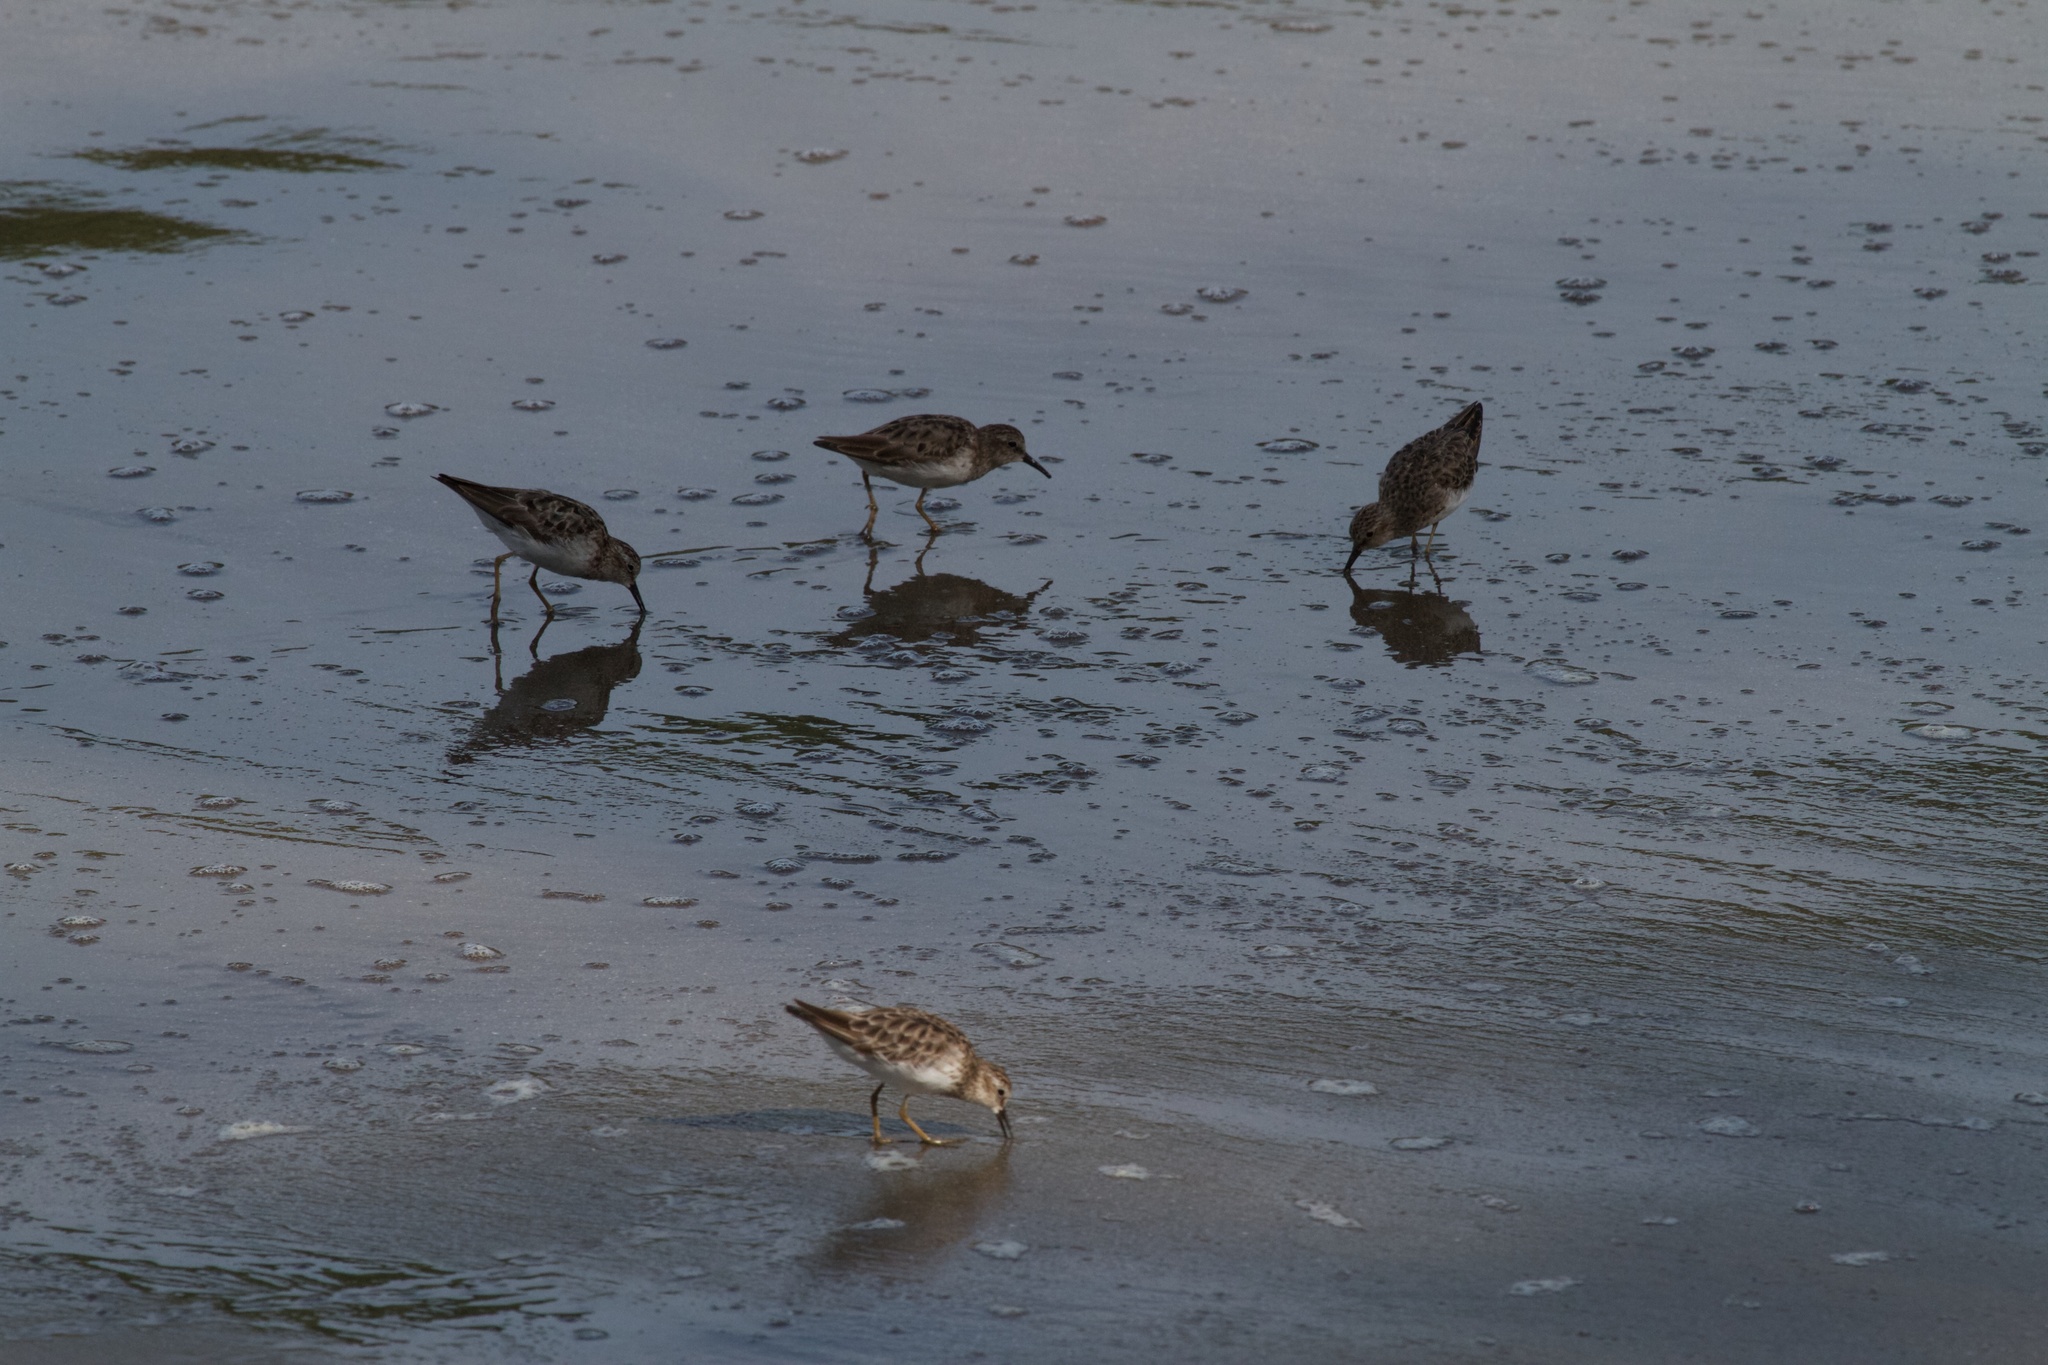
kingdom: Animalia
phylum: Chordata
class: Aves
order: Charadriiformes
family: Scolopacidae
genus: Calidris
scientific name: Calidris minutilla
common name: Least sandpiper
